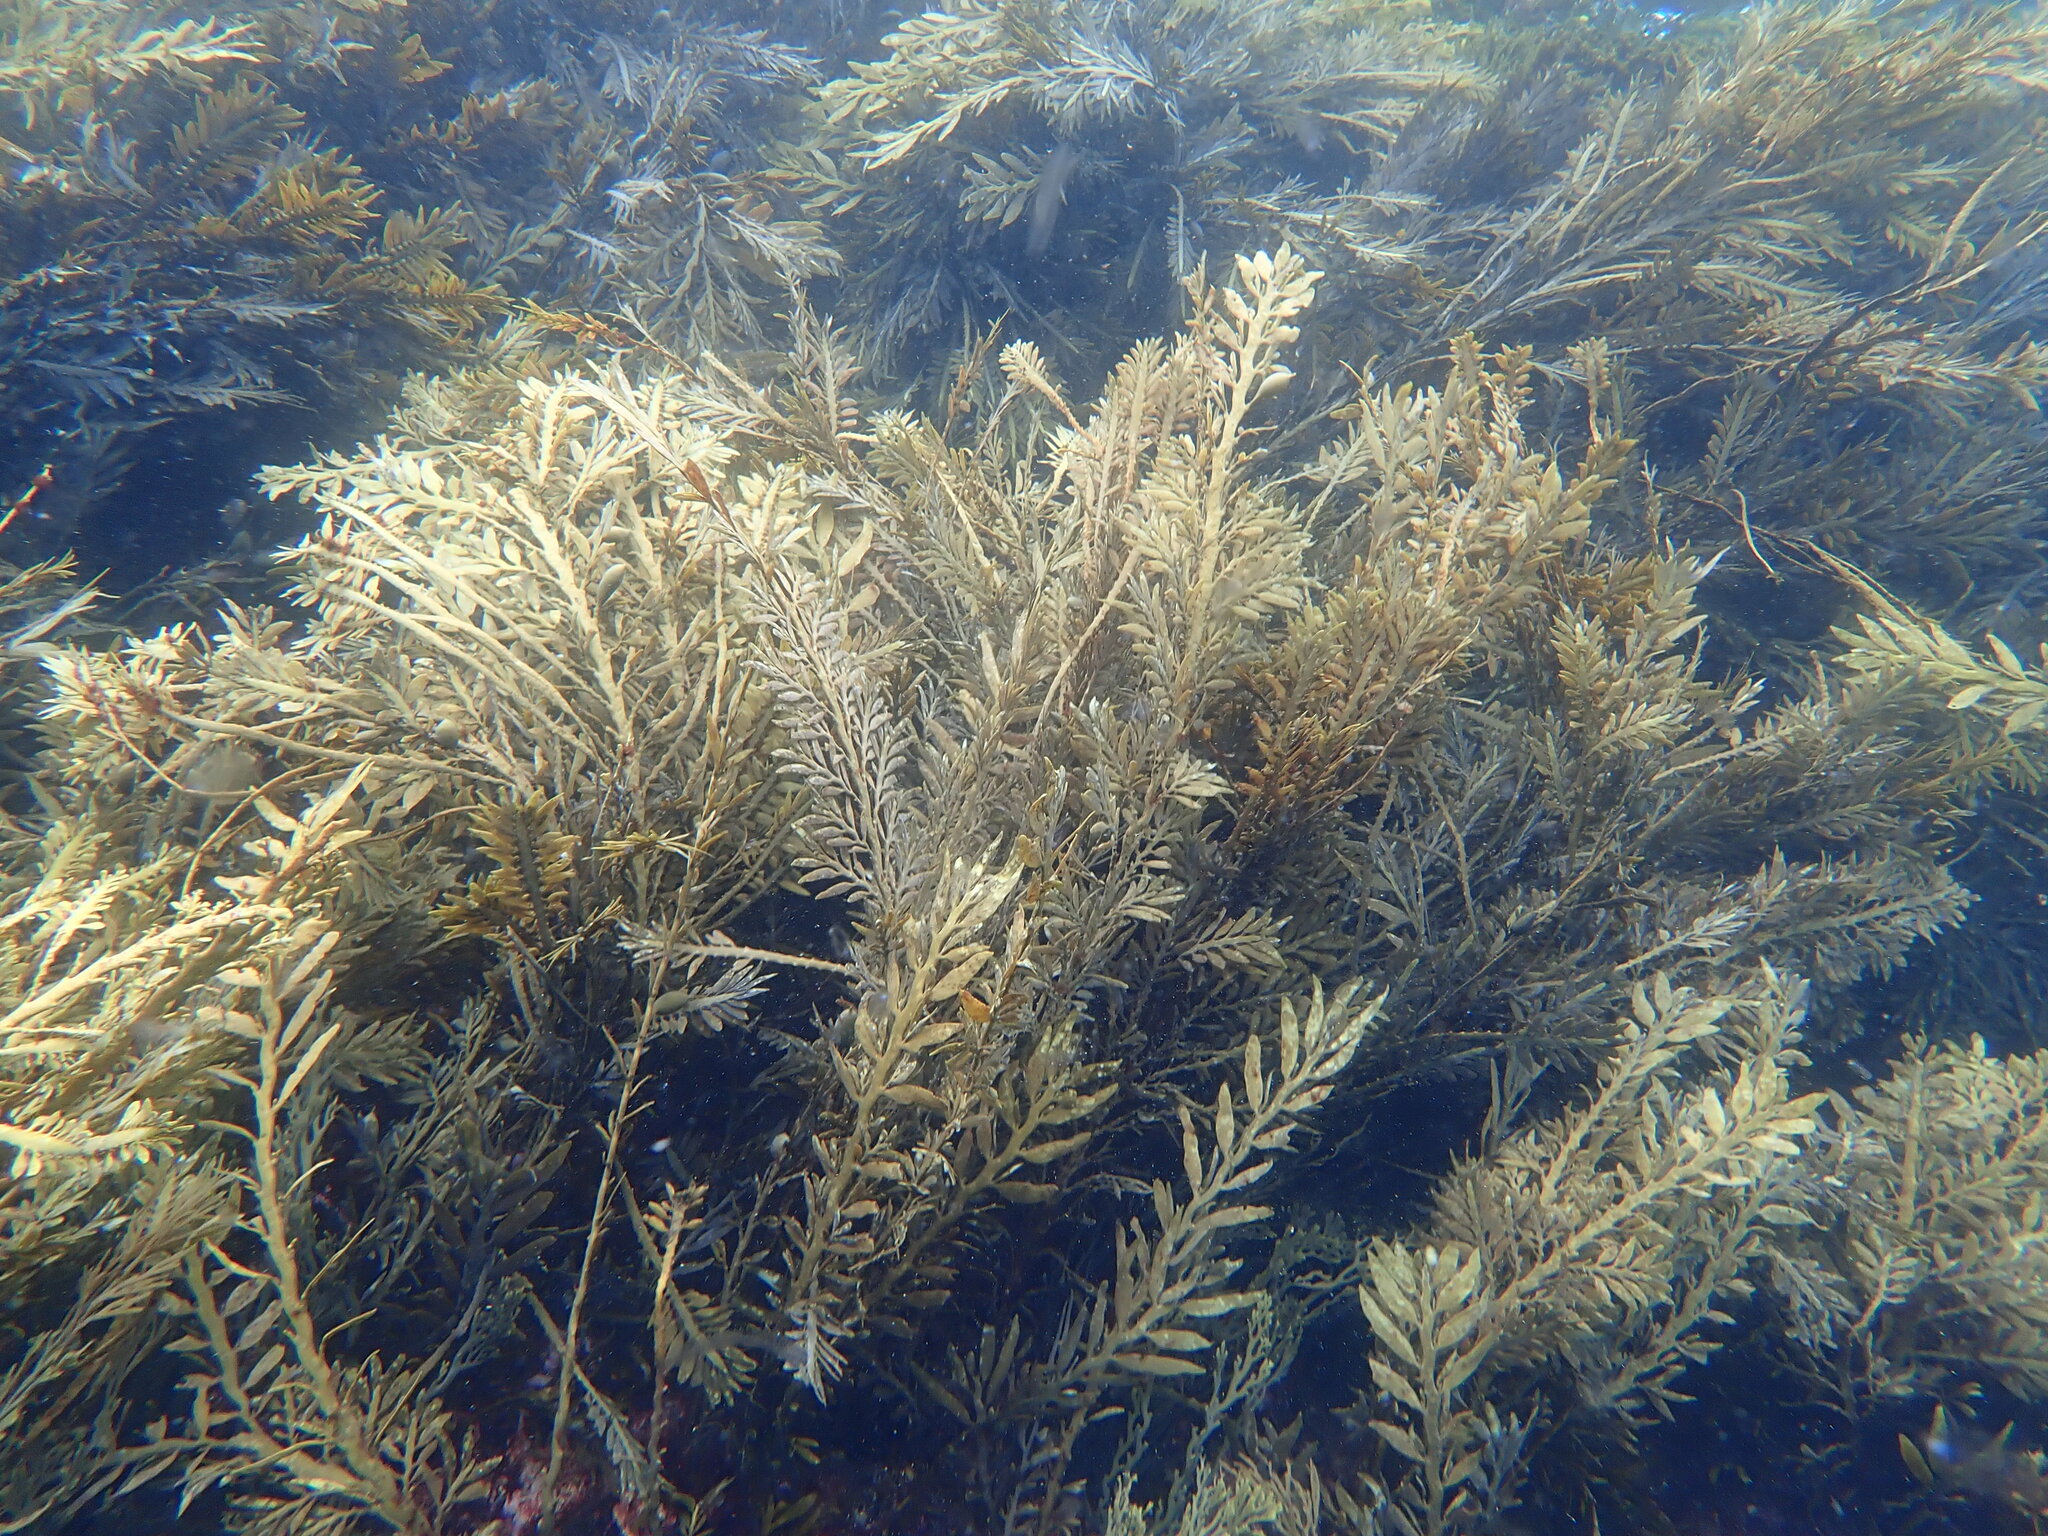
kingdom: Chromista
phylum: Ochrophyta
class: Phaeophyceae
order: Fucales
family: Sargassaceae
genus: Carpophyllum
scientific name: Carpophyllum angustifolium
